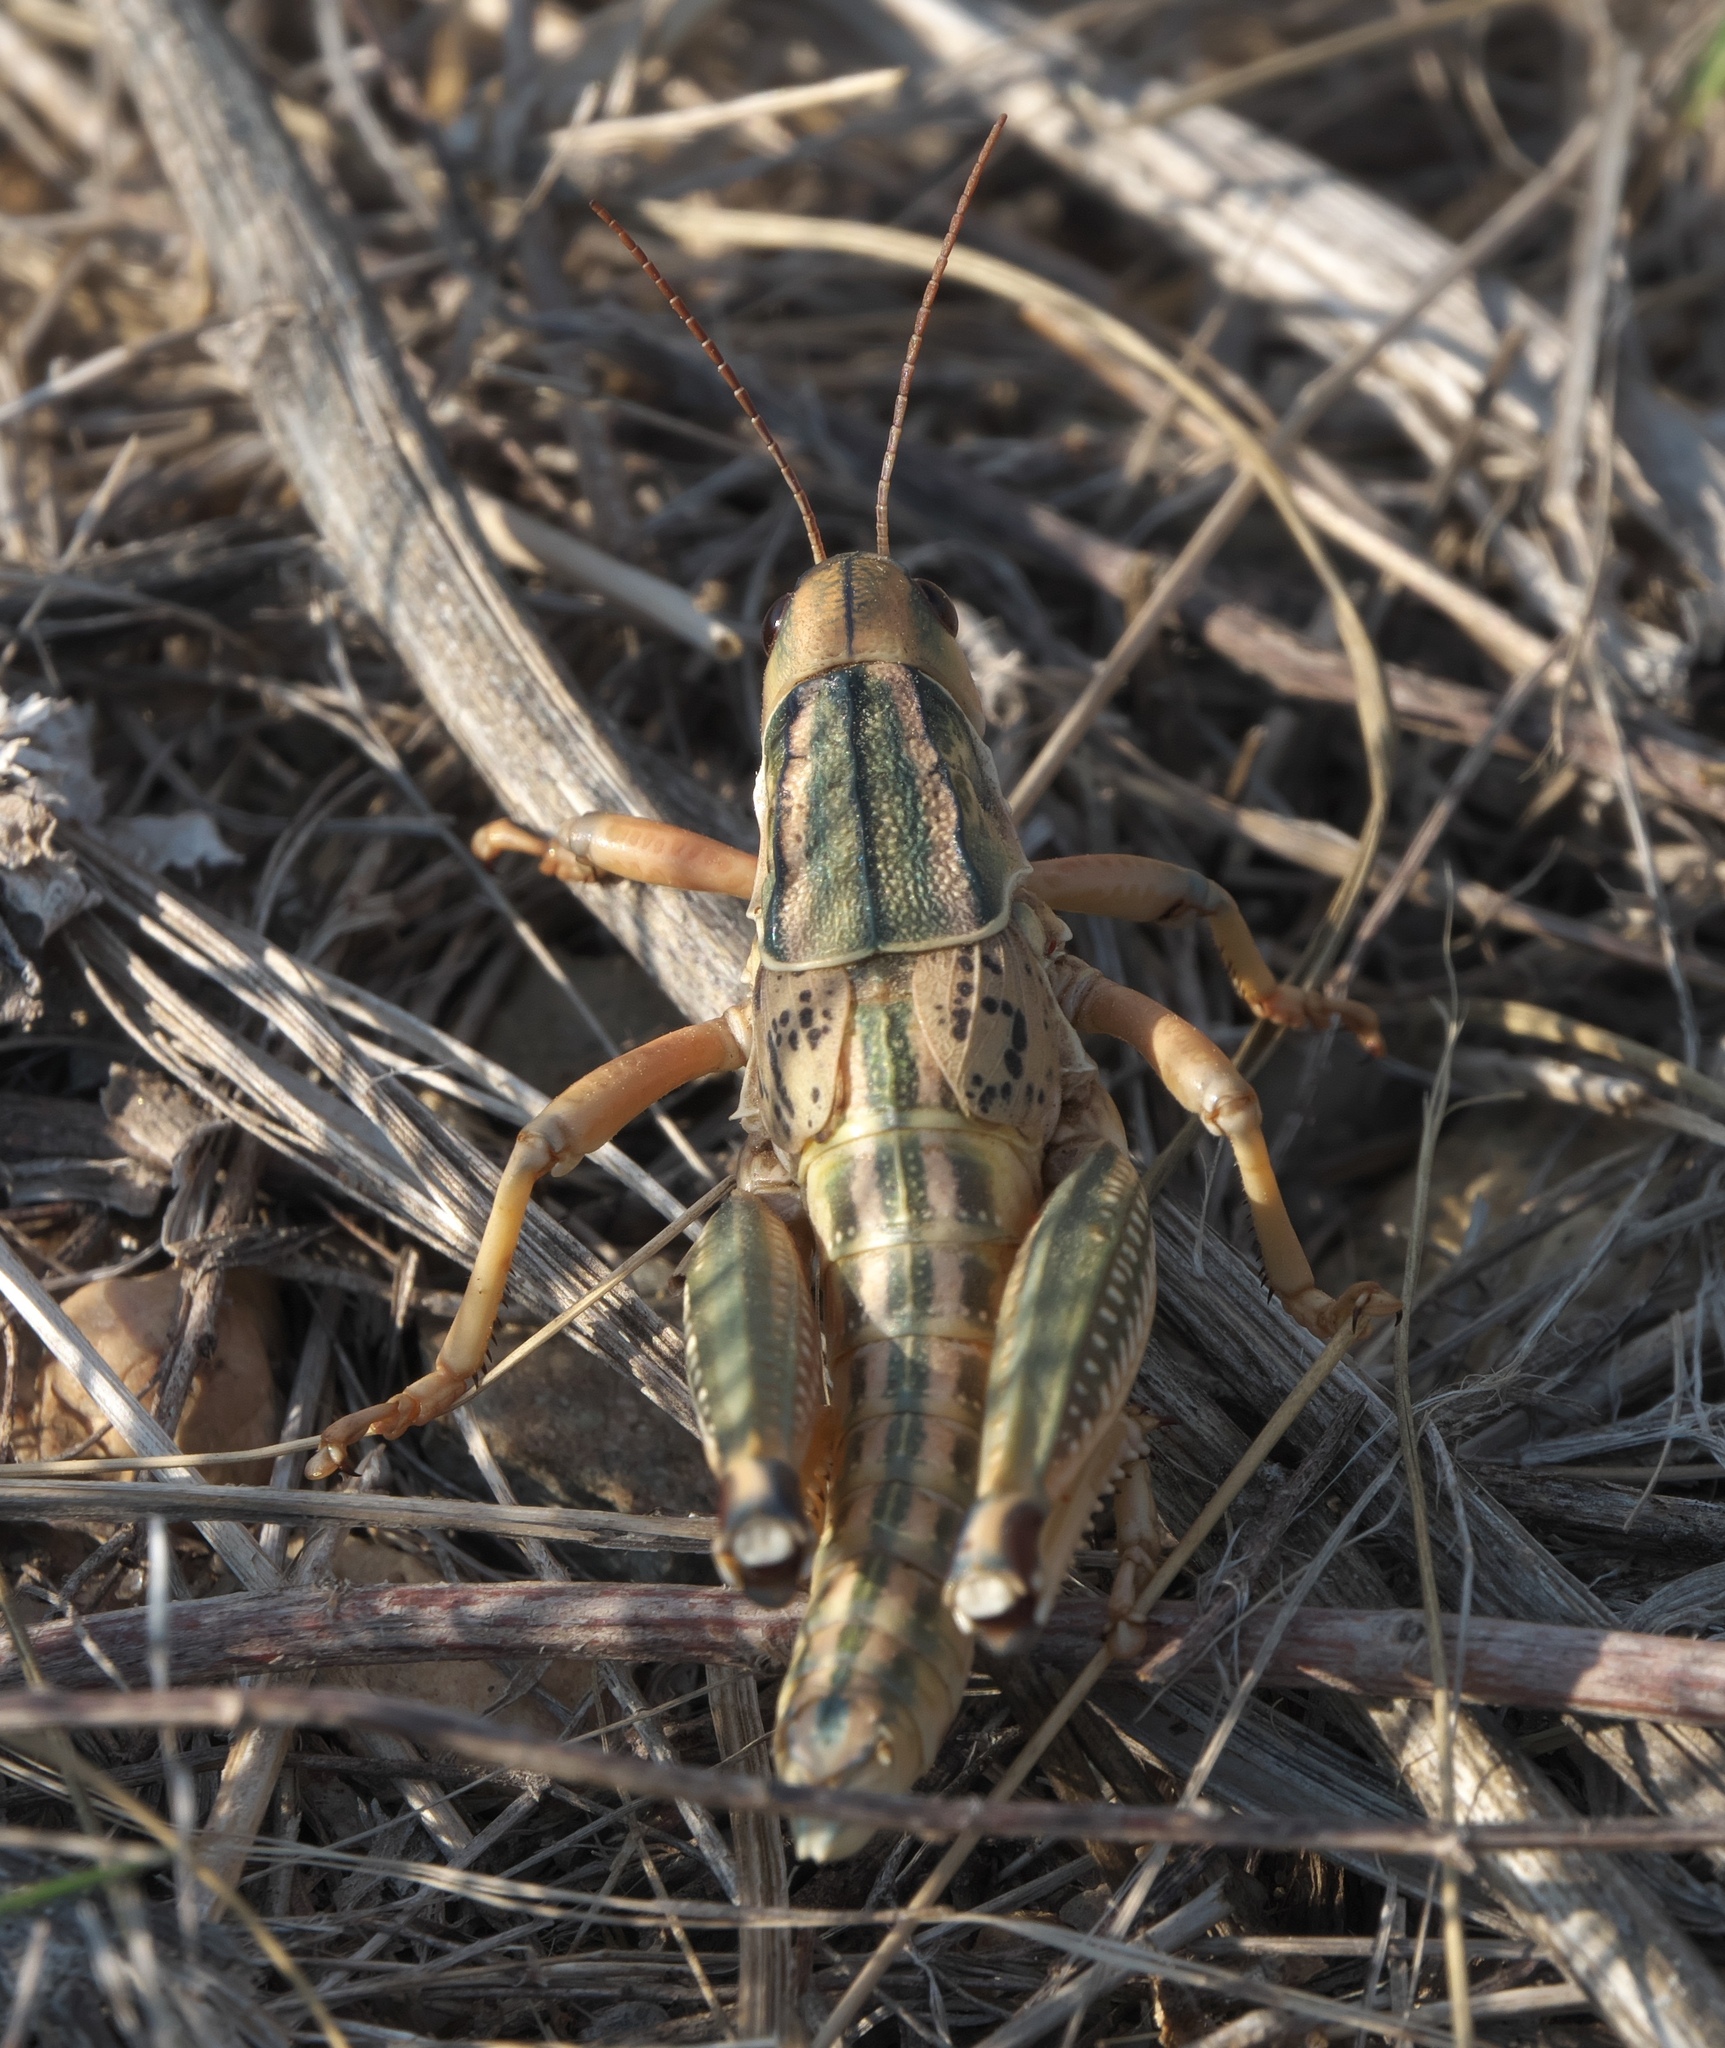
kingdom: Animalia
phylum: Arthropoda
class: Insecta
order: Orthoptera
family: Romaleidae
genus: Brachystola
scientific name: Brachystola magna
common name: Plains lubber grasshopper
